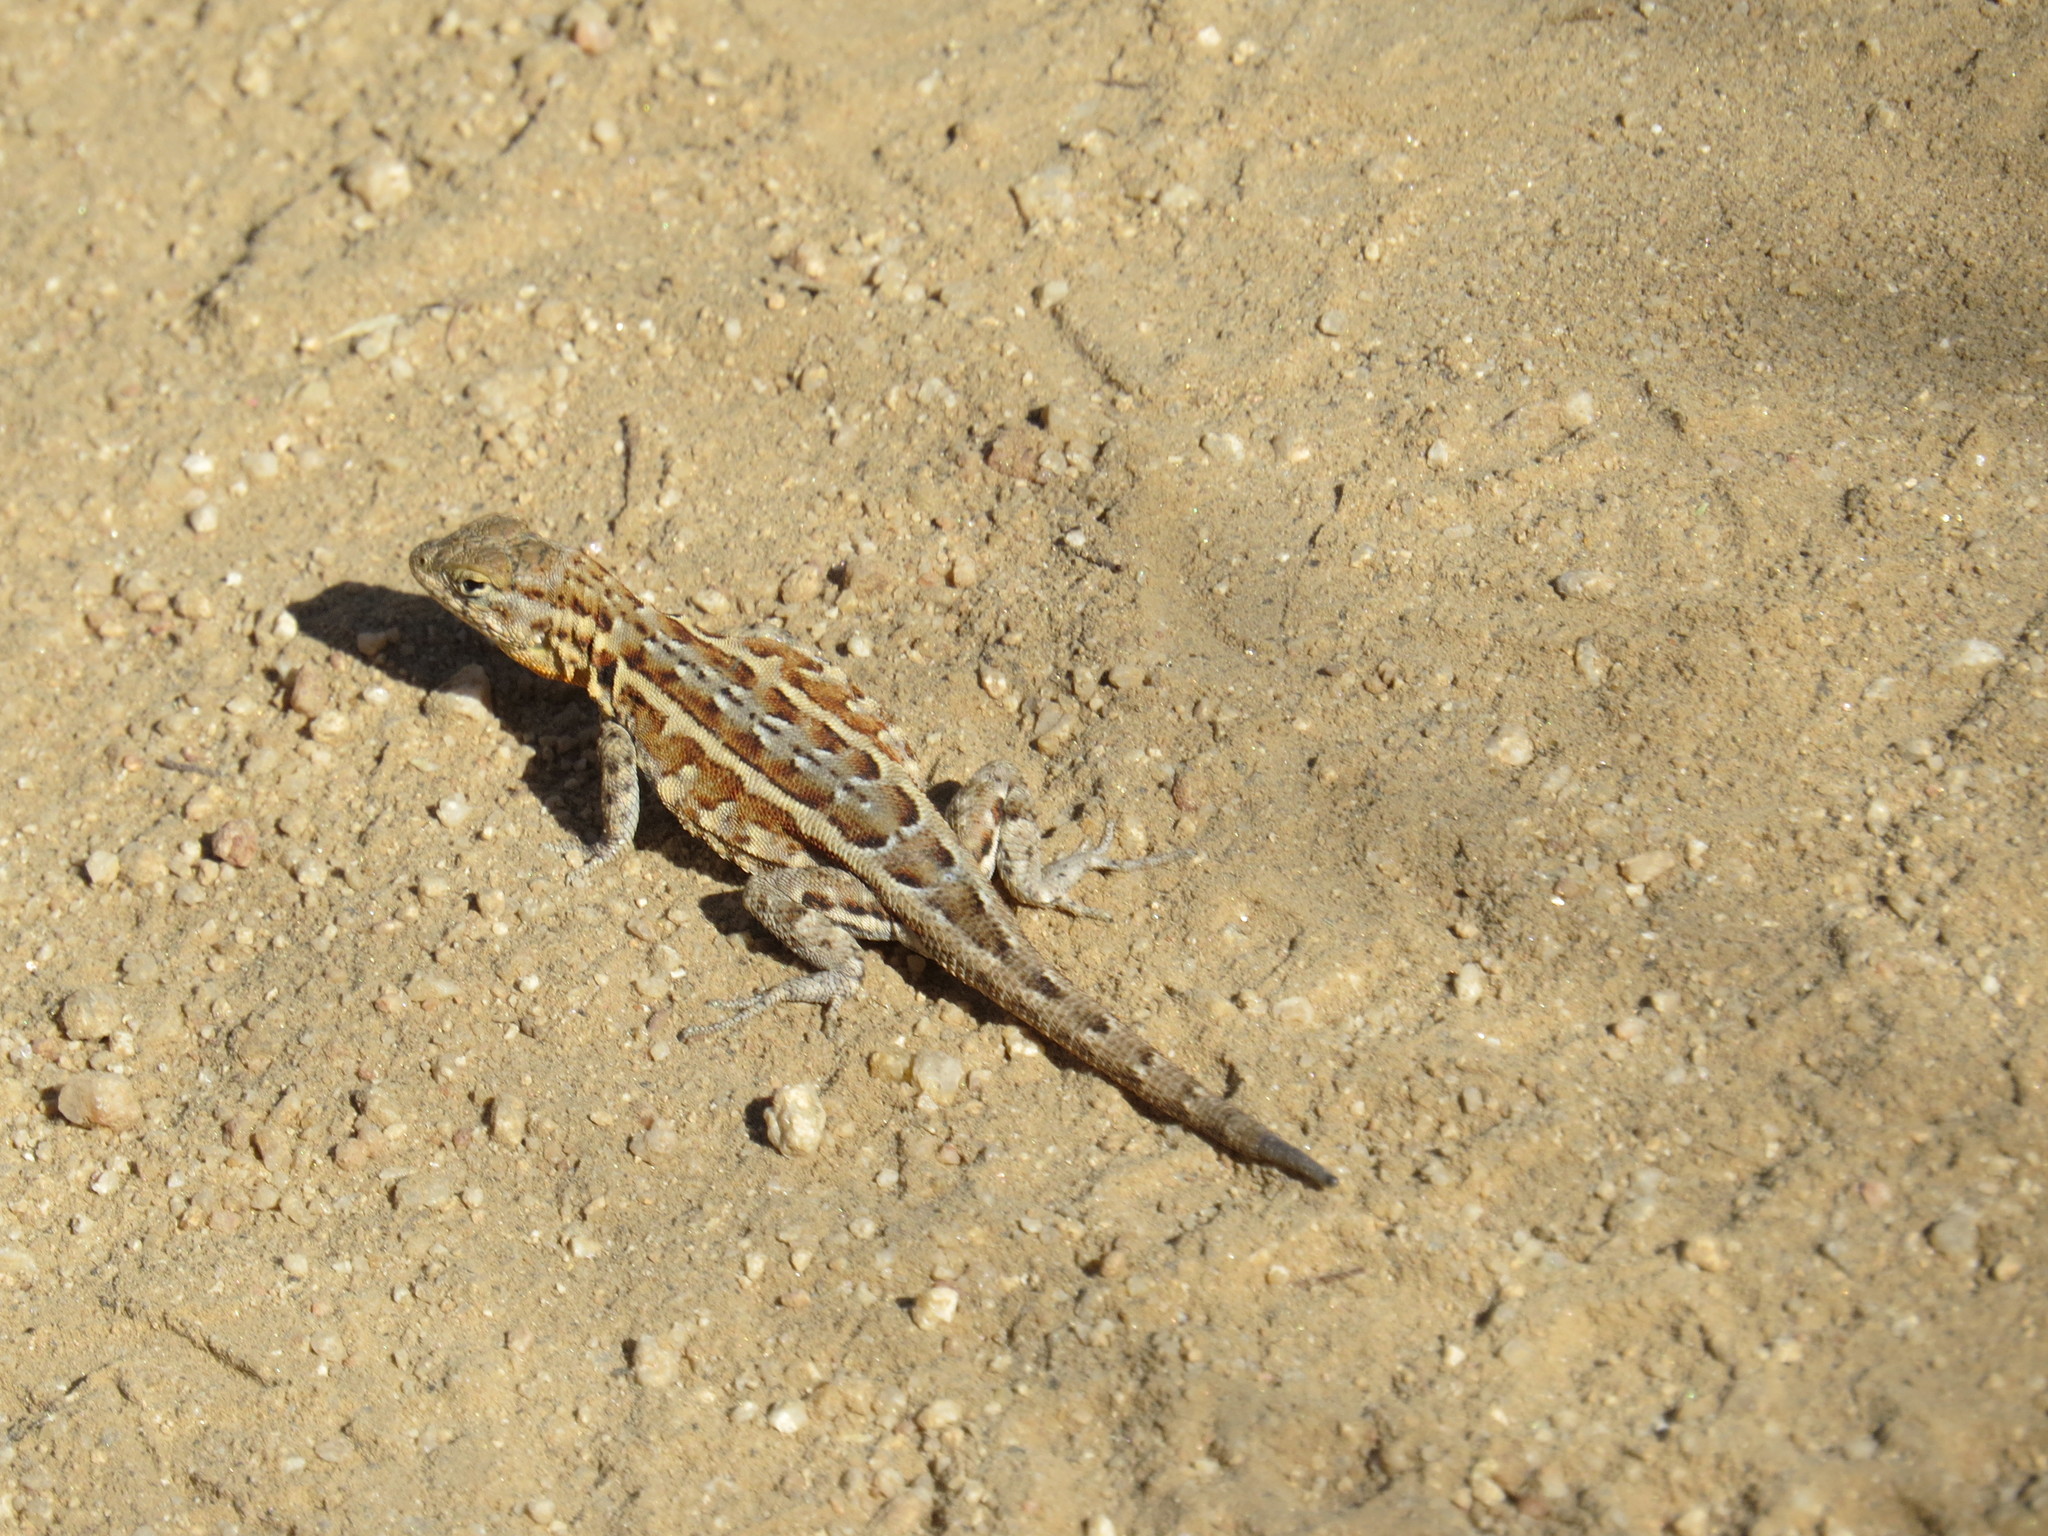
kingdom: Animalia
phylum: Chordata
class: Squamata
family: Phrynosomatidae
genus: Uta
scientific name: Uta stansburiana
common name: Side-blotched lizard
